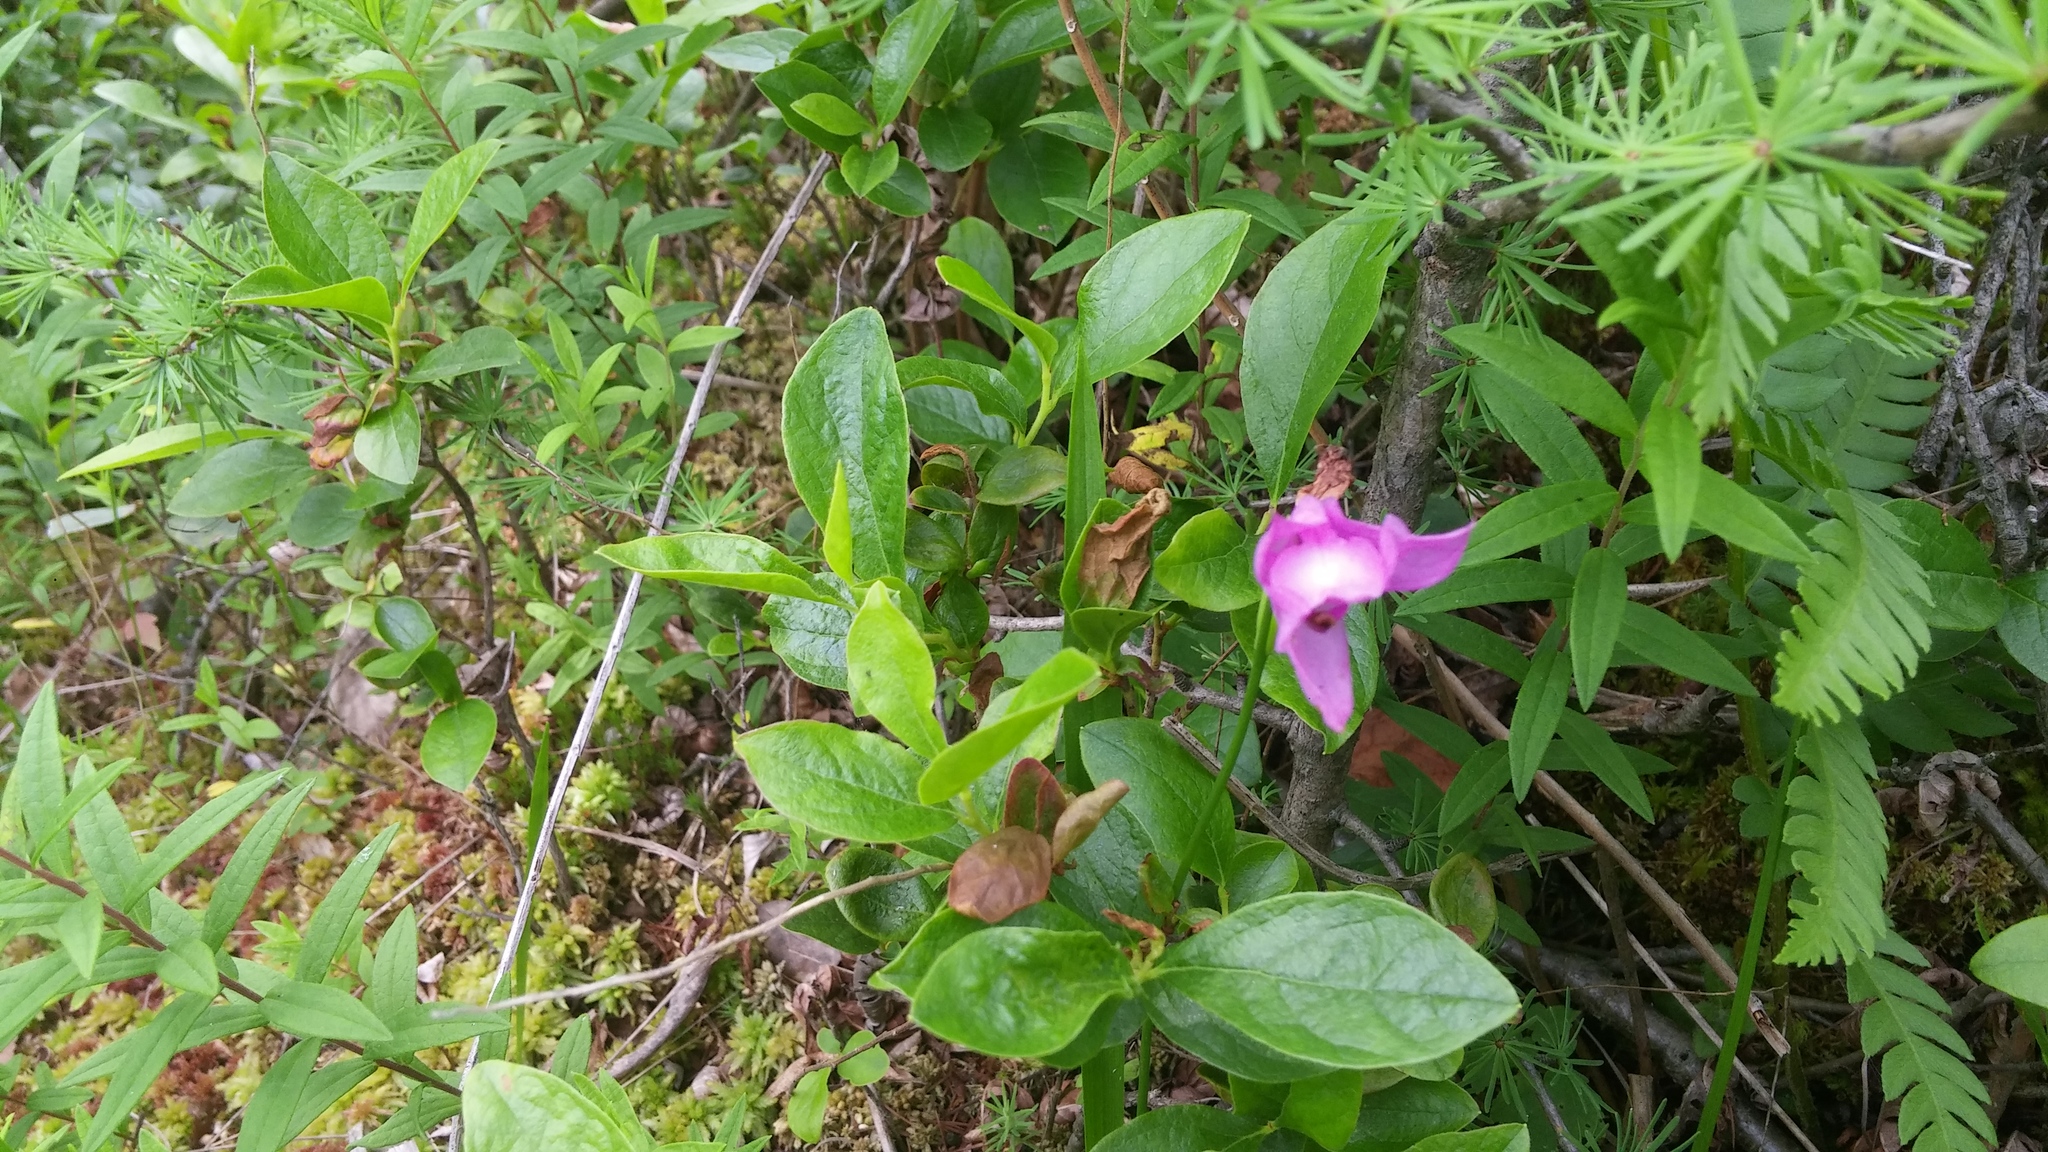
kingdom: Plantae
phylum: Tracheophyta
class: Liliopsida
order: Asparagales
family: Orchidaceae
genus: Calopogon
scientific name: Calopogon tuberosus
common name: Grass-pink
